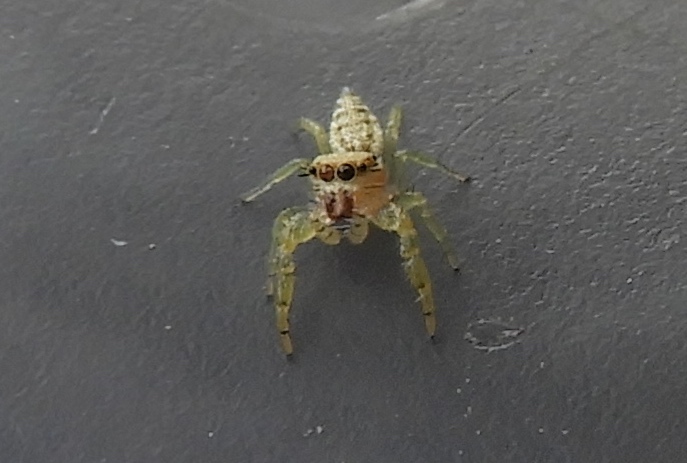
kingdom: Animalia
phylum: Arthropoda
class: Arachnida
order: Araneae
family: Salticidae
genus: Hentzia
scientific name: Hentzia
